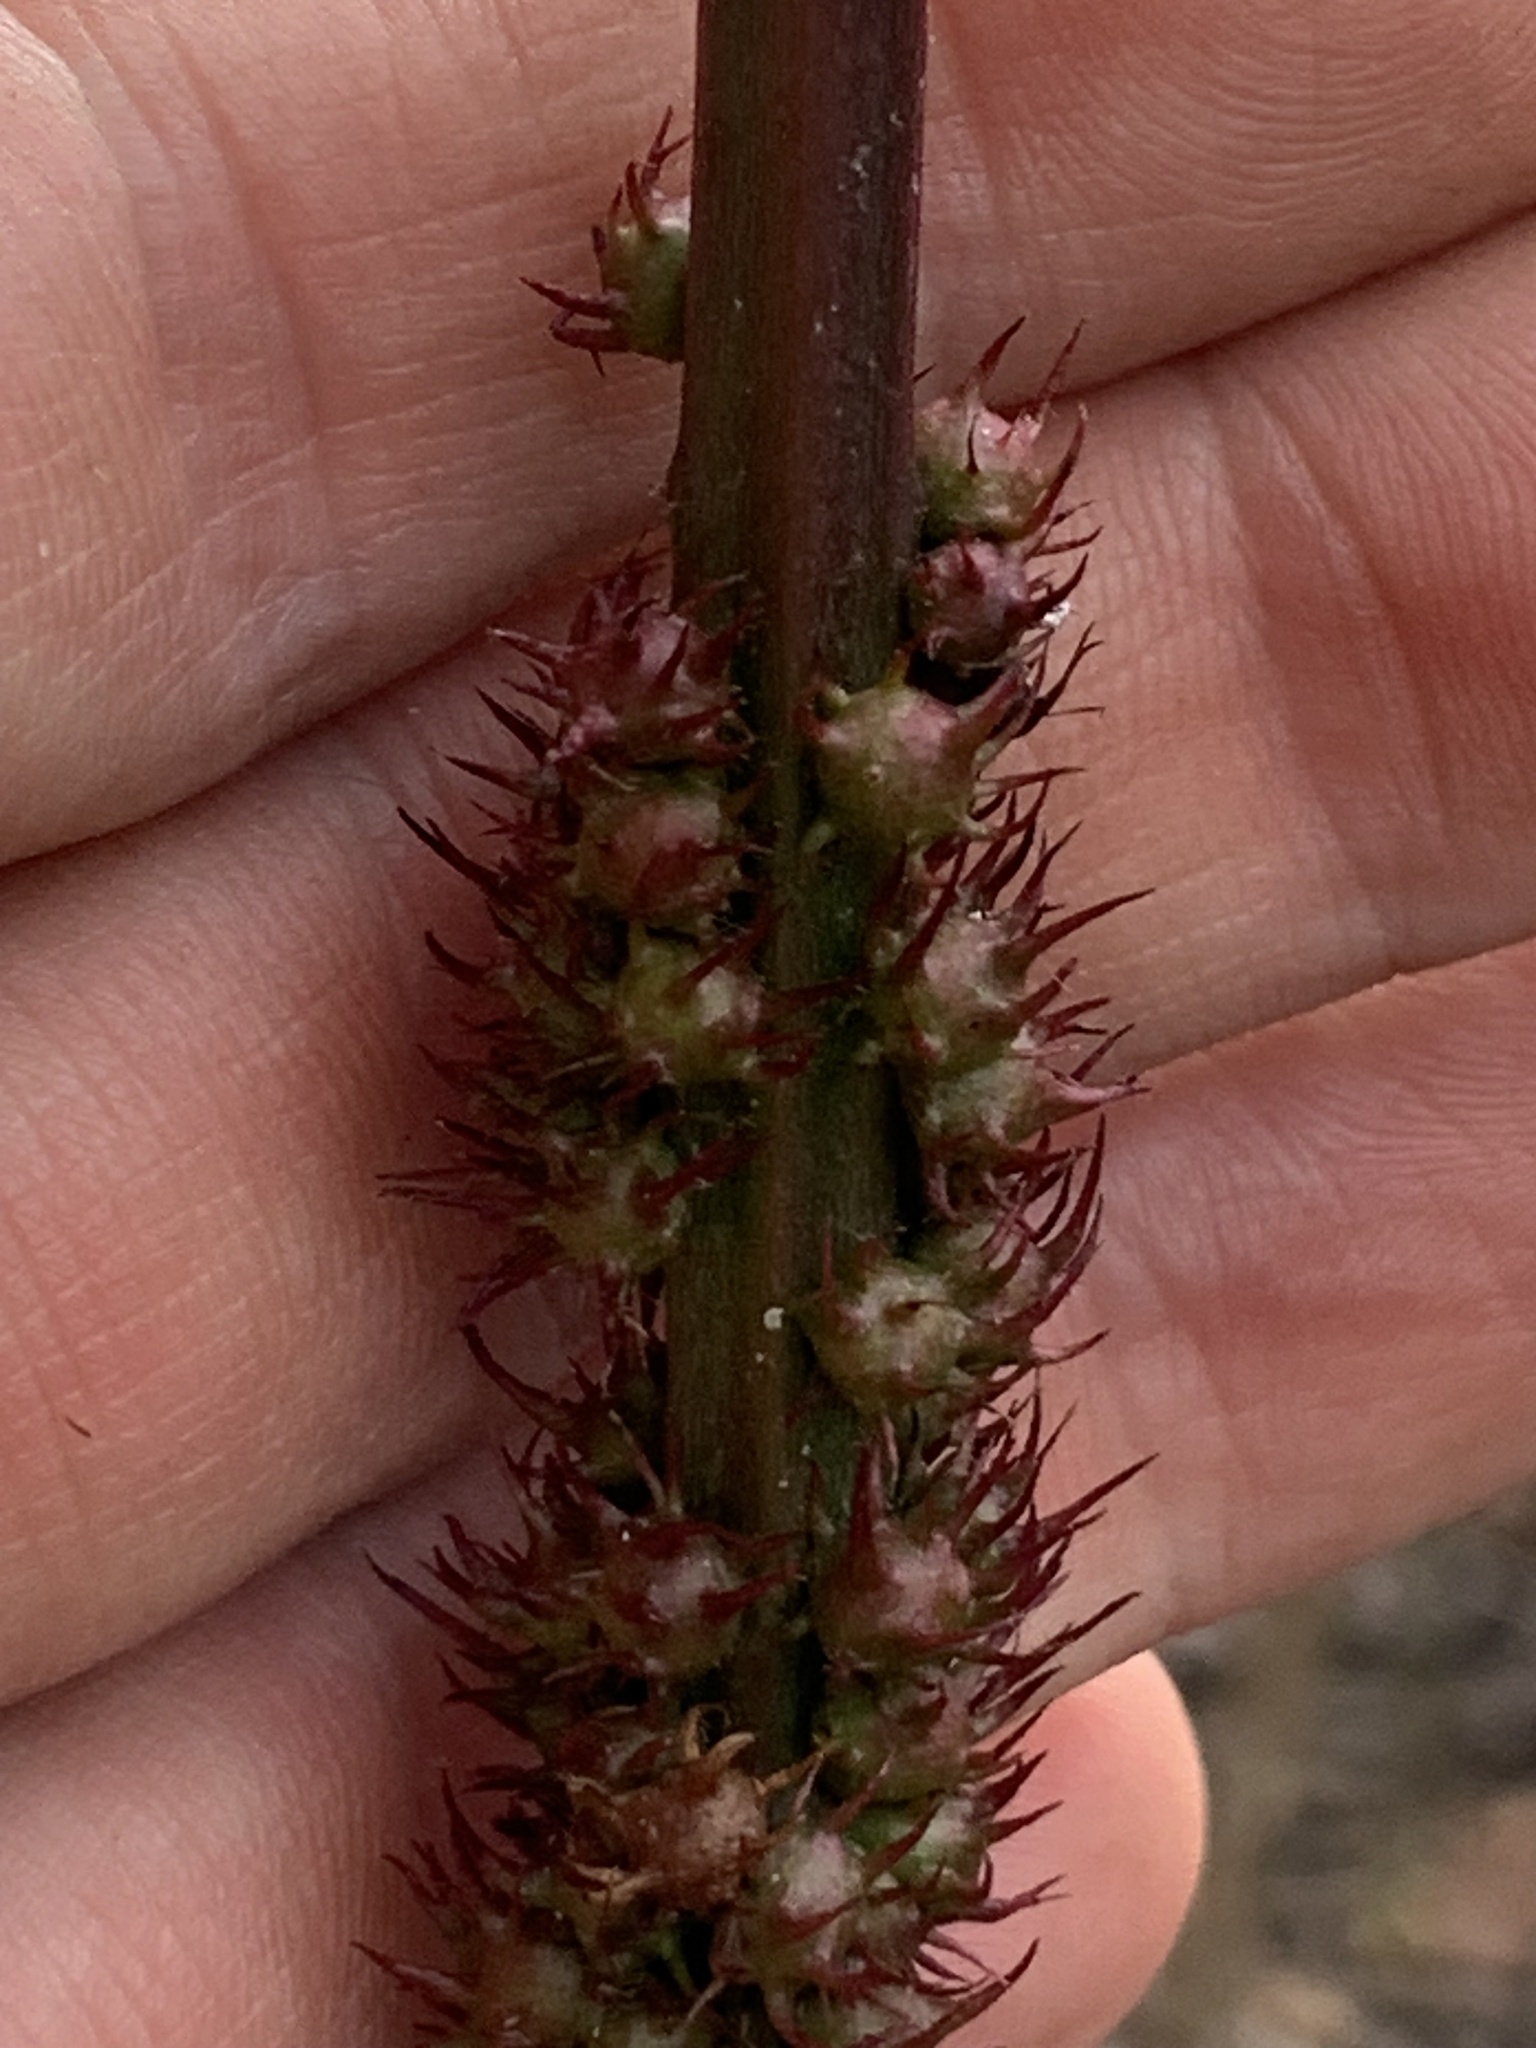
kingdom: Animalia
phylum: Arthropoda
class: Insecta
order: Hymenoptera
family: Cynipidae
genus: Diastrophus
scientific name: Diastrophus
